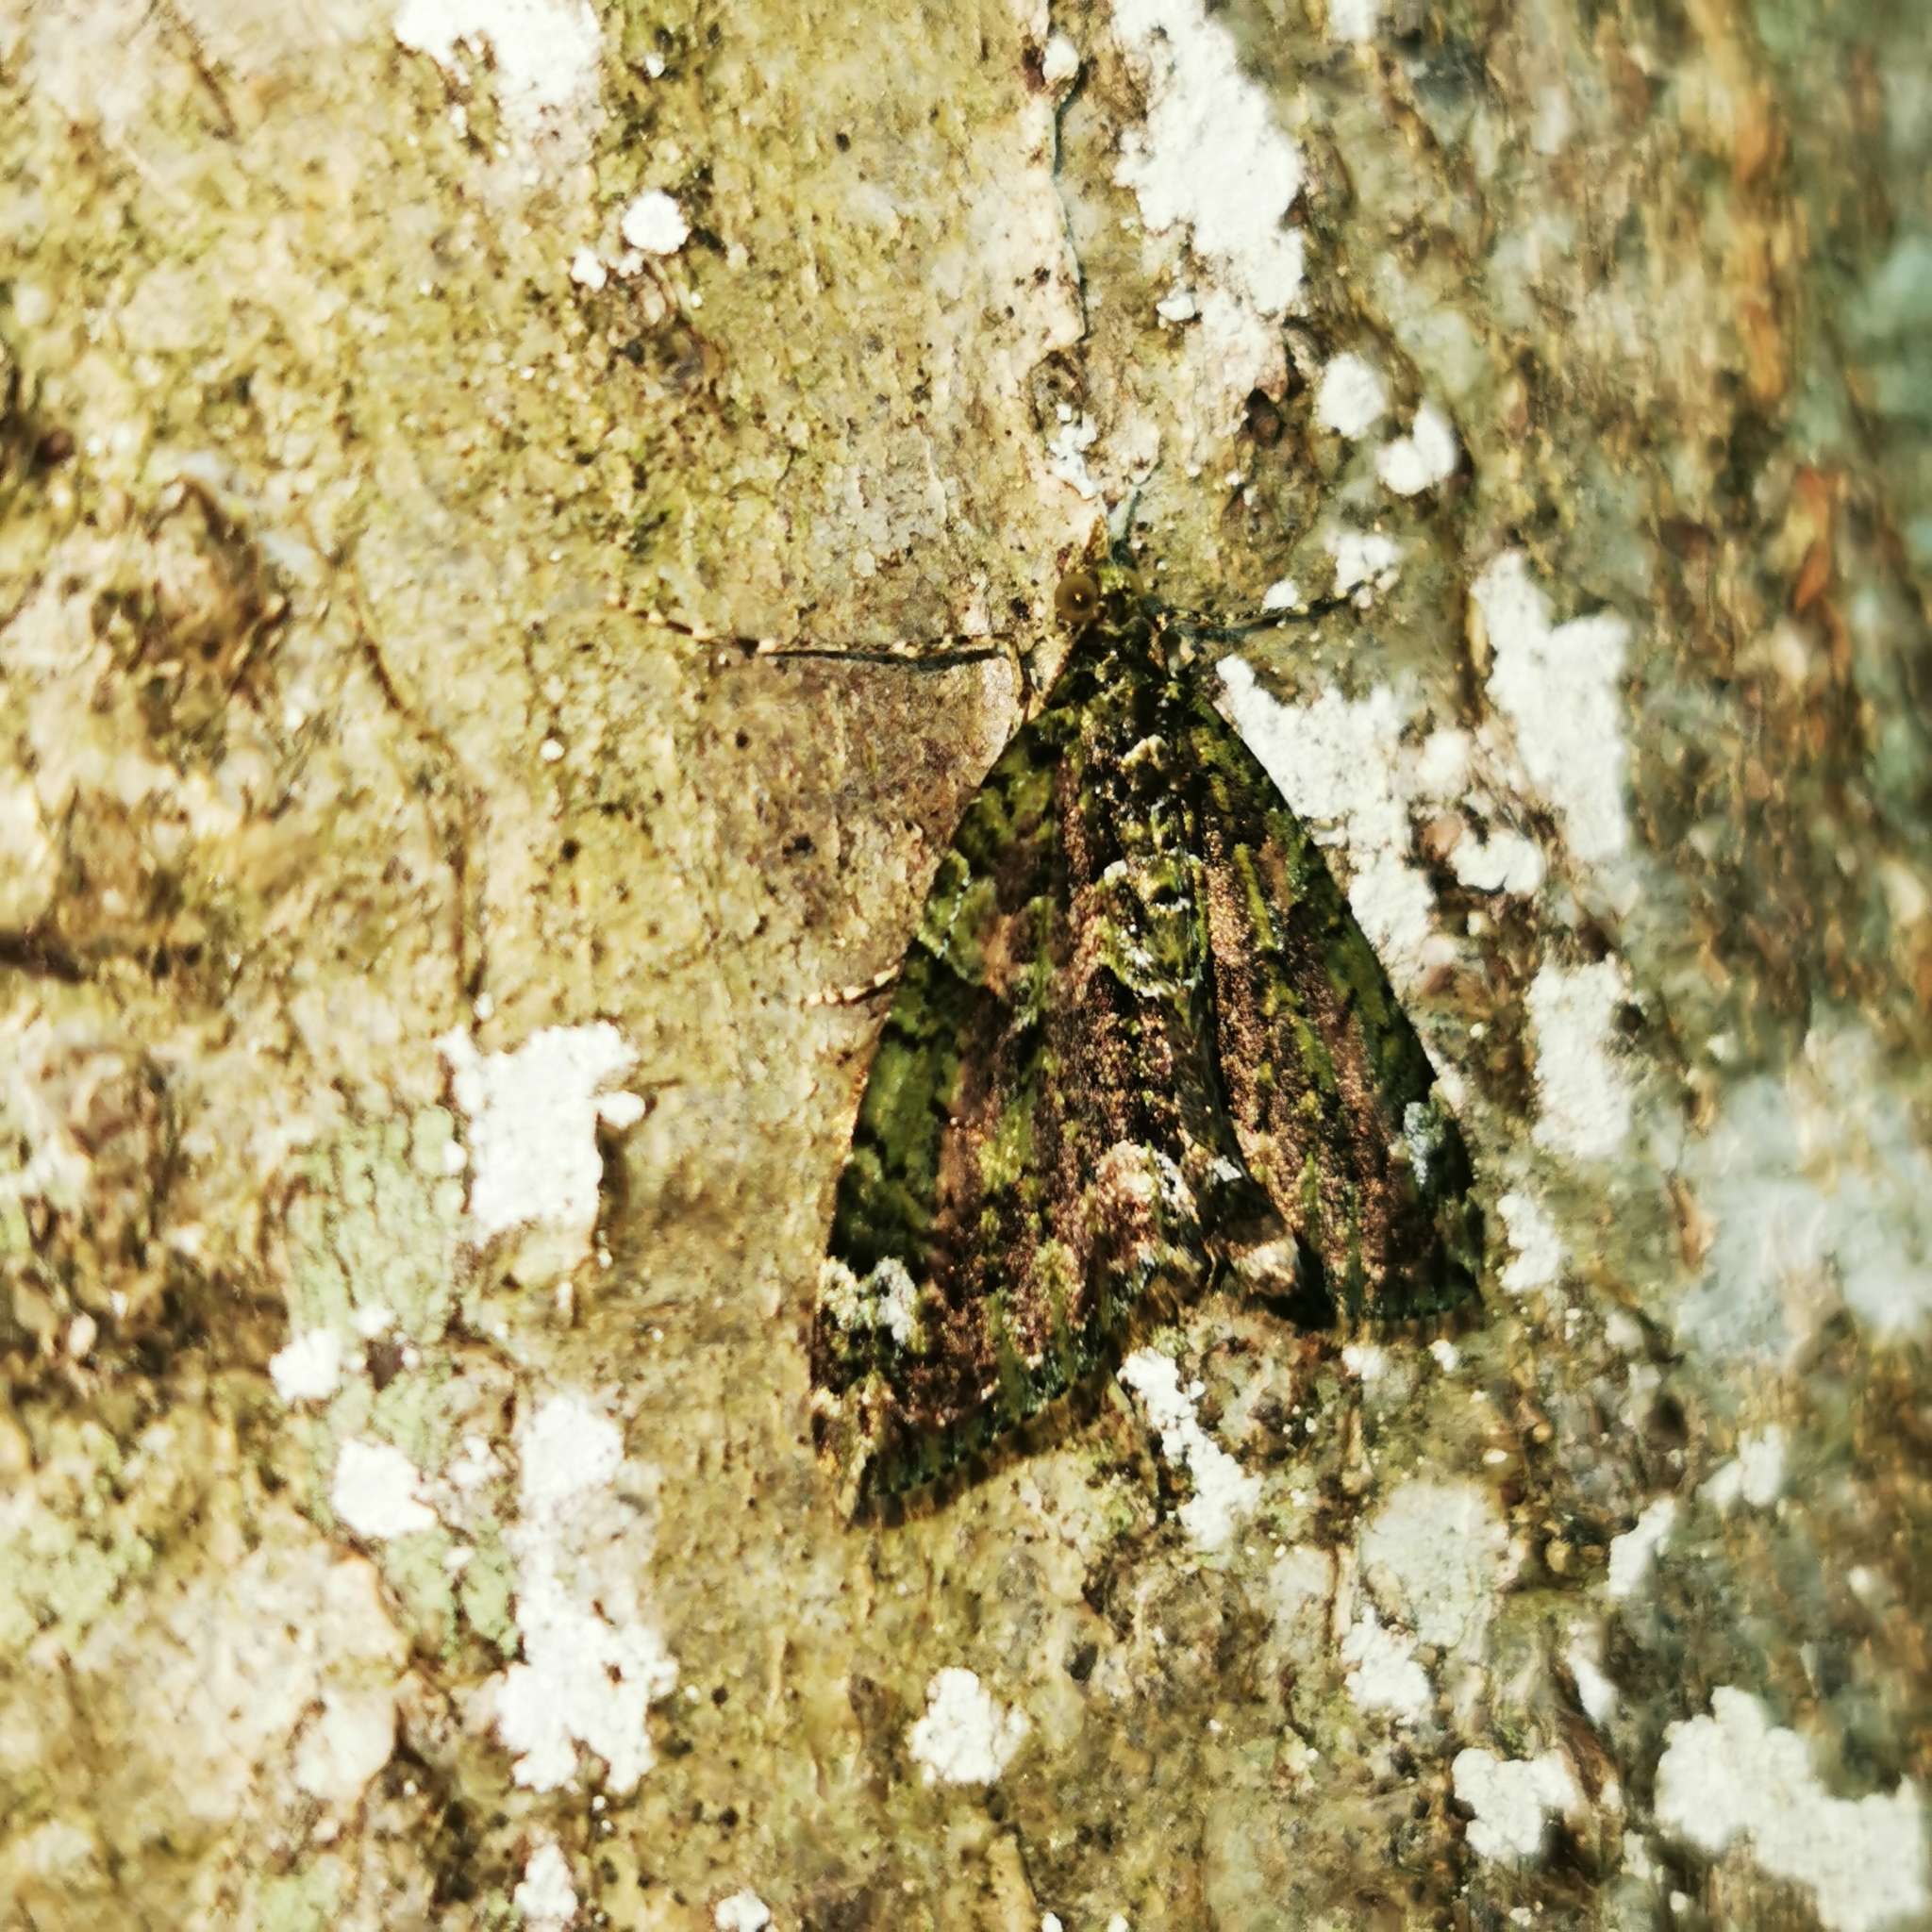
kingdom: Animalia
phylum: Arthropoda
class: Insecta
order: Lepidoptera
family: Geometridae
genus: Chloroclysta
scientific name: Chloroclysta siterata
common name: Red-green carpet
